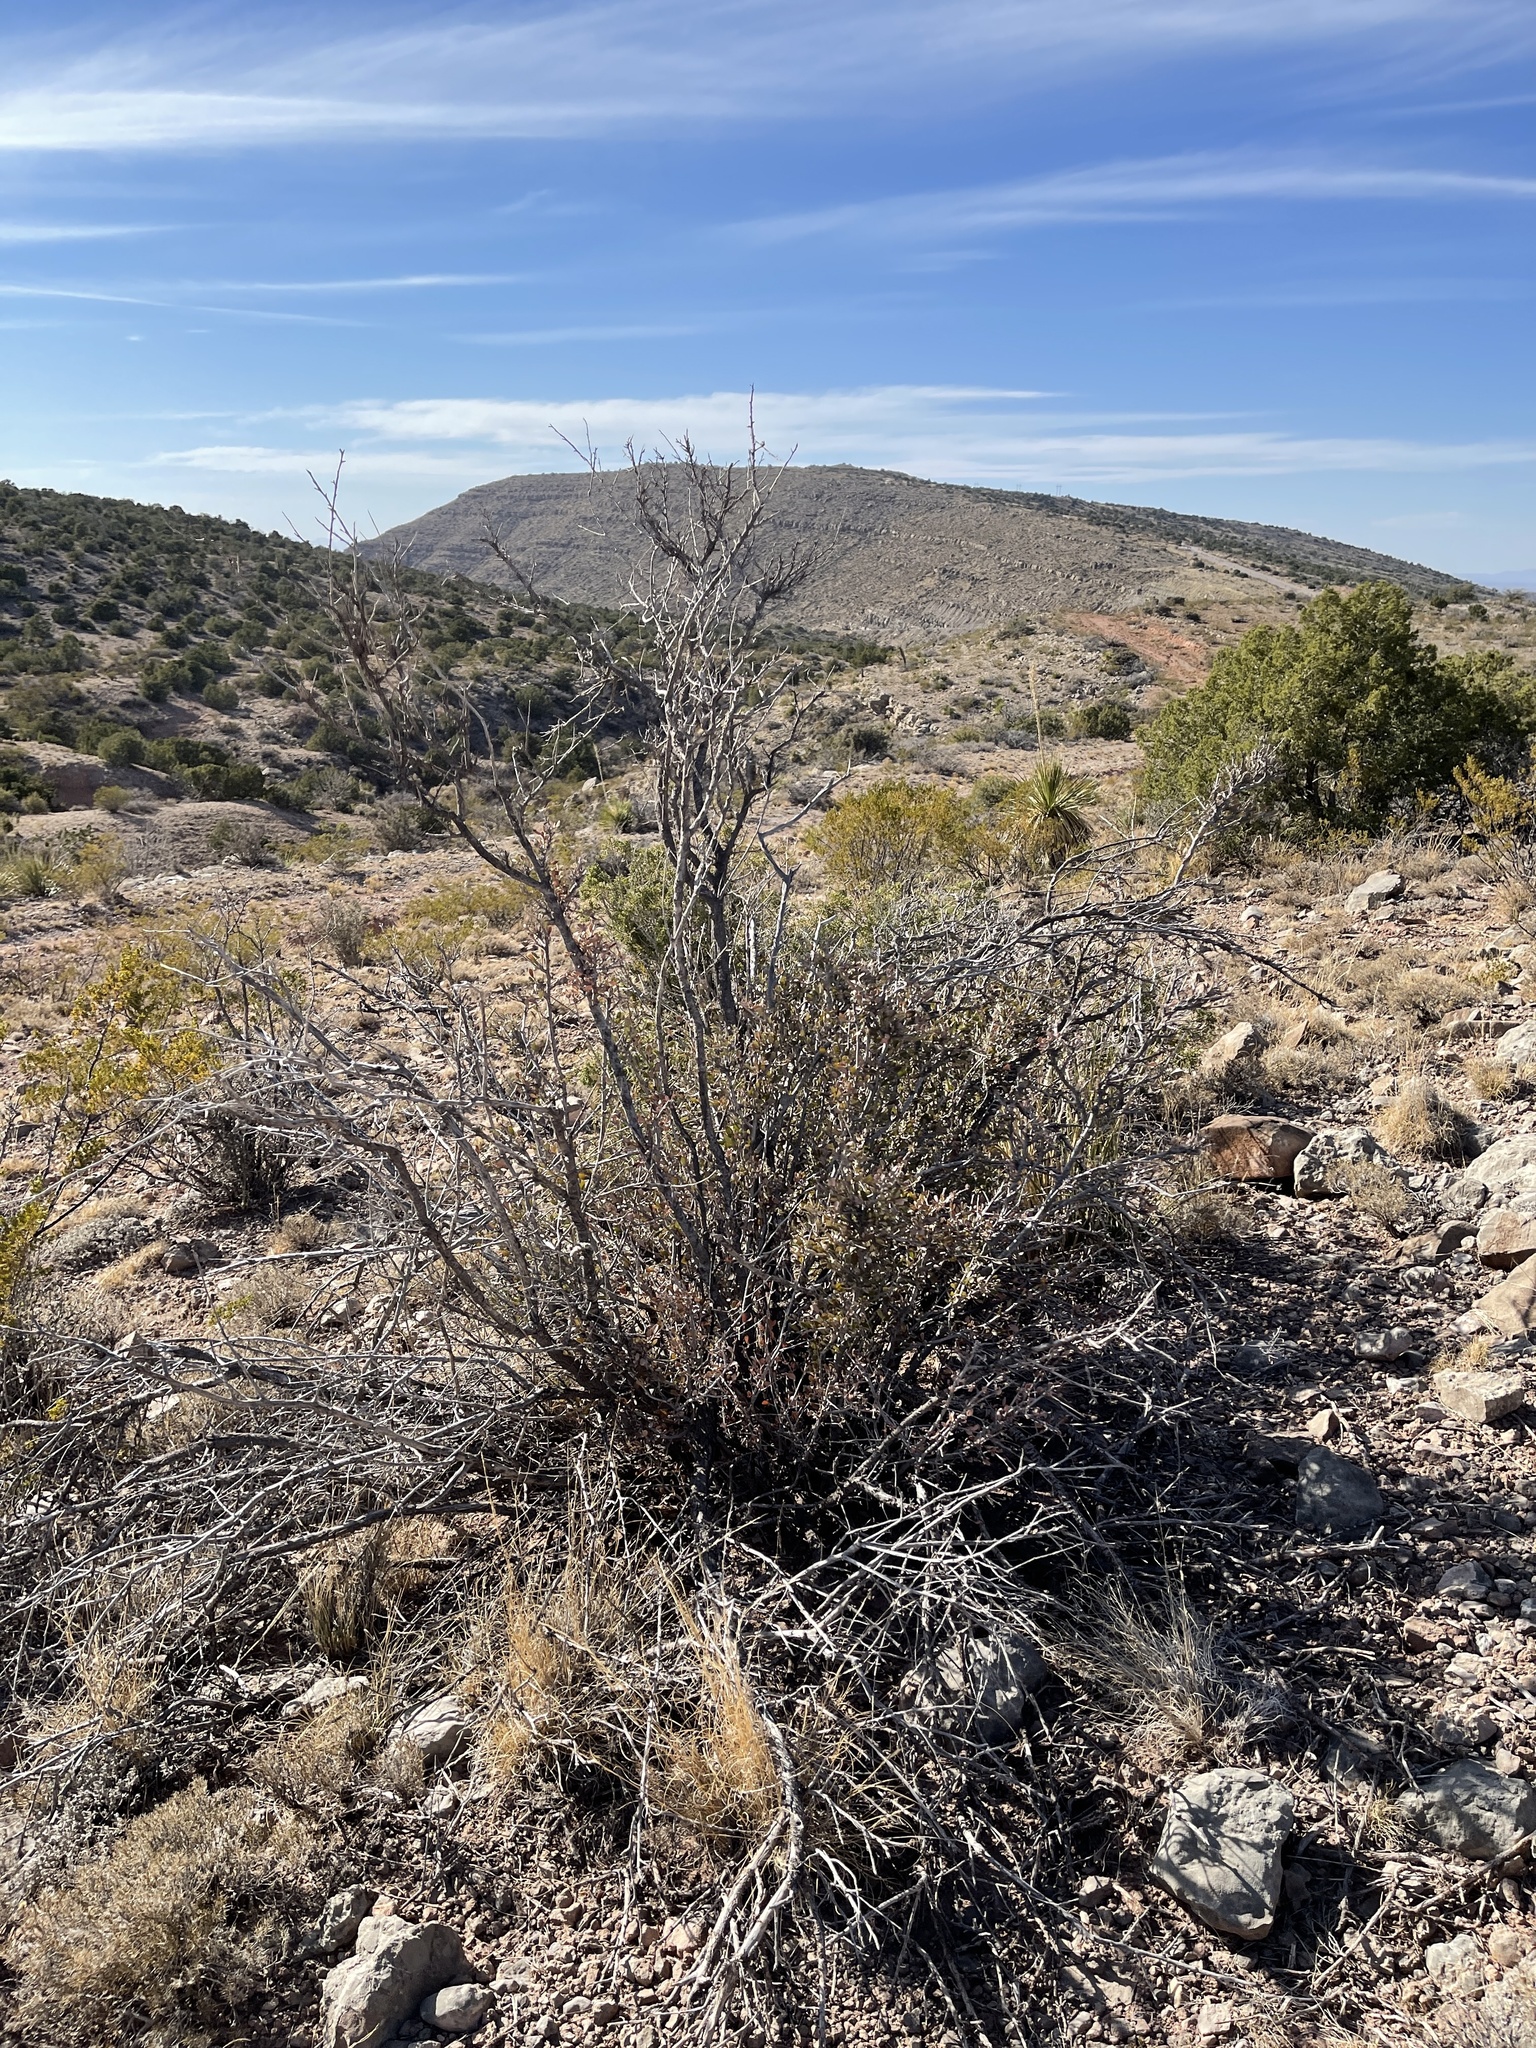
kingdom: Plantae
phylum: Tracheophyta
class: Magnoliopsida
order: Rosales
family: Rosaceae
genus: Cercocarpus
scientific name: Cercocarpus breviflorus
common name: Wright's mountain-mahogany
